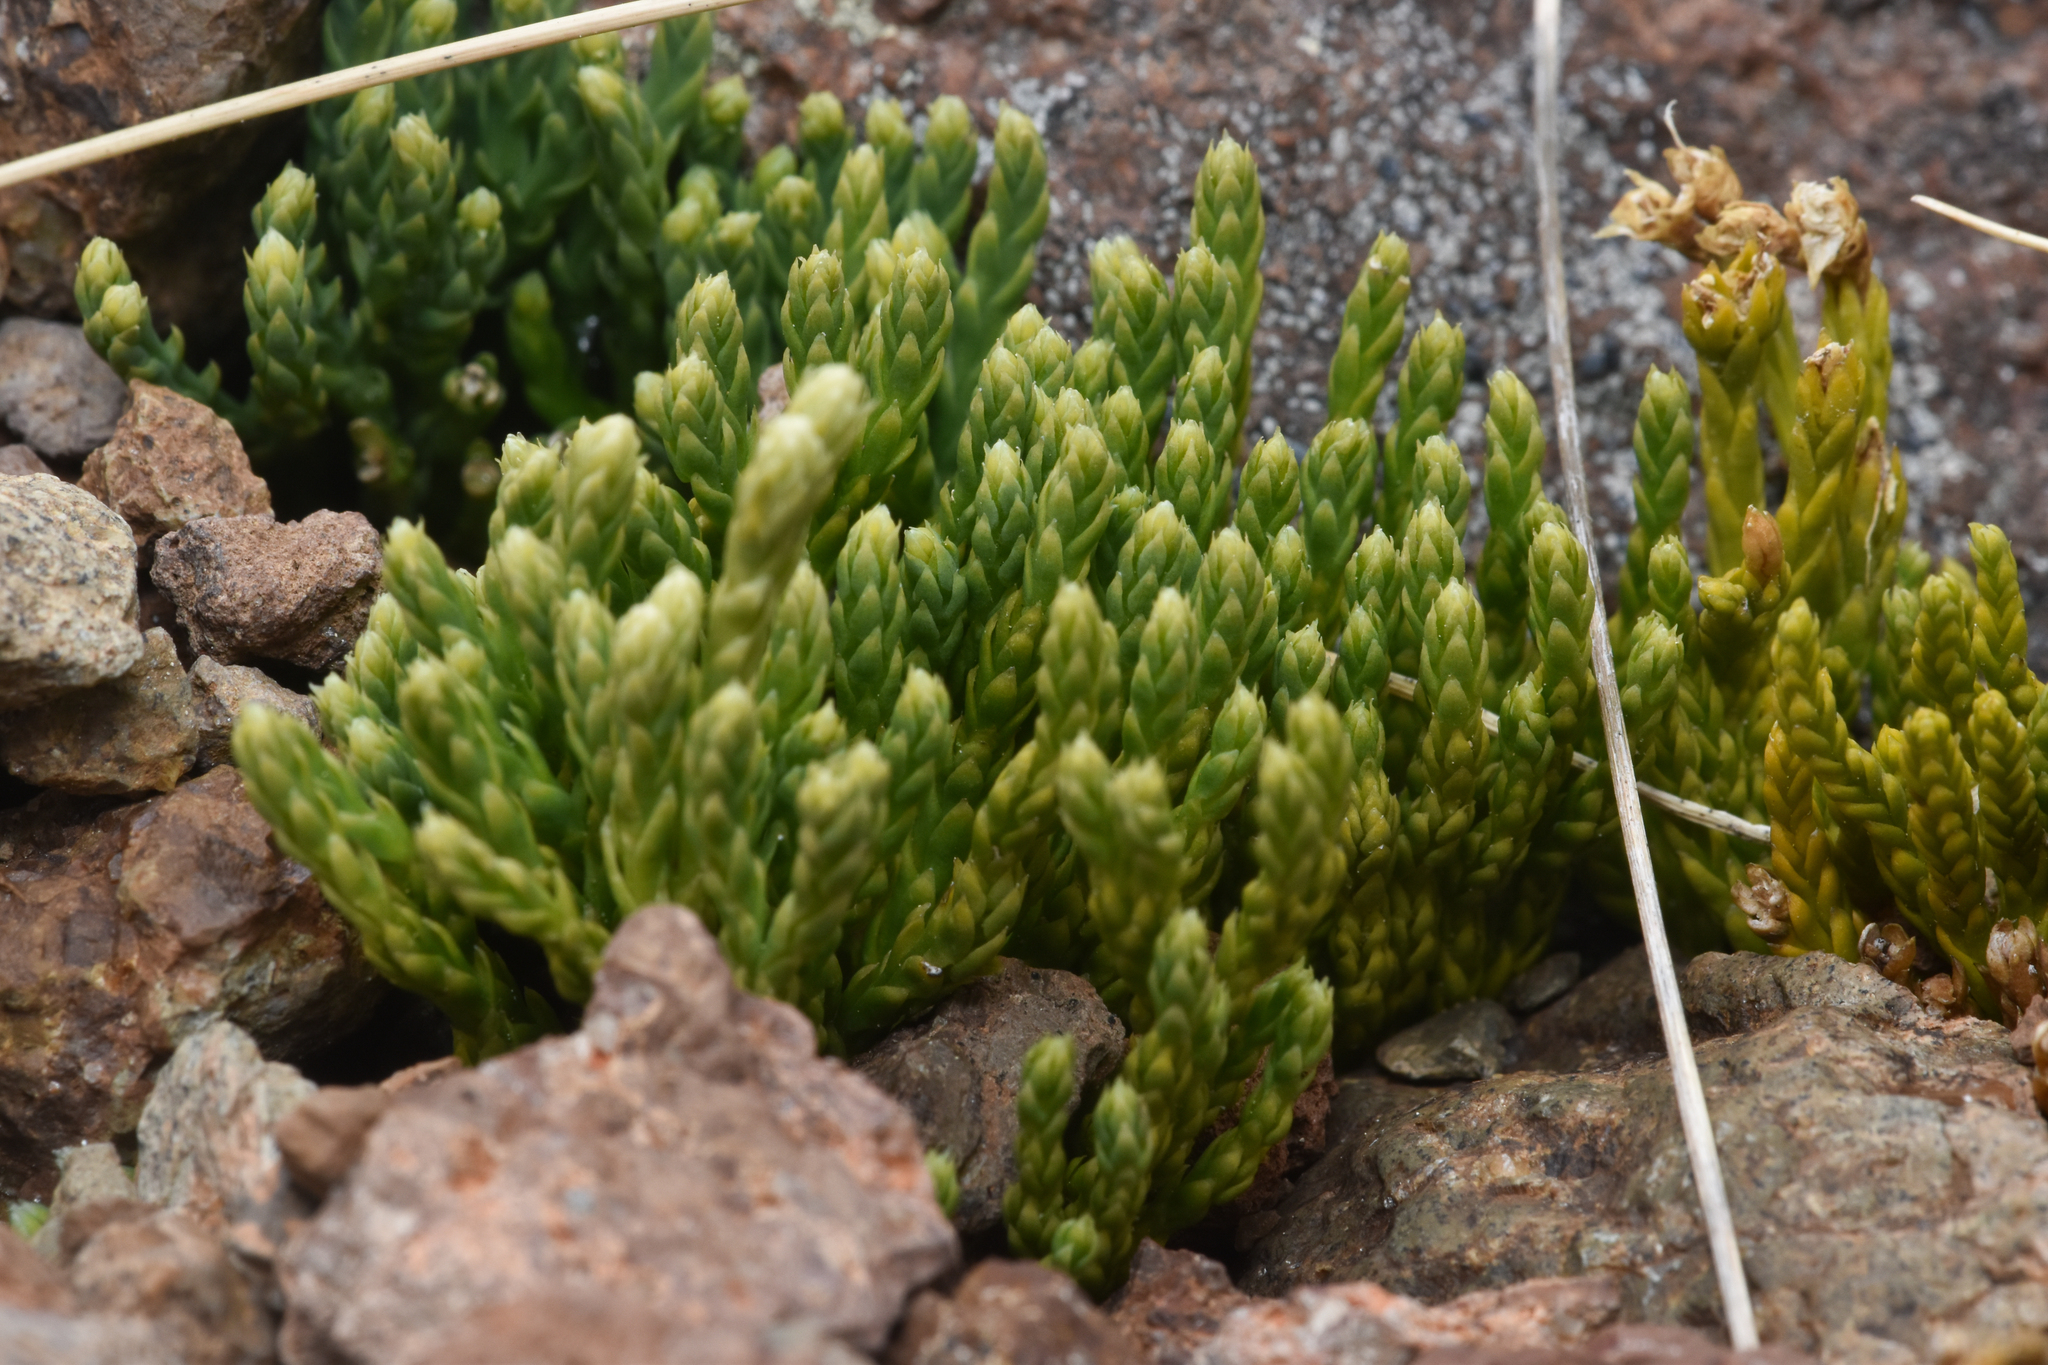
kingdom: Plantae
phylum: Tracheophyta
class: Lycopodiopsida
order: Lycopodiales
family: Lycopodiaceae
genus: Diphasiastrum
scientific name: Diphasiastrum alpinum
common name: Alpine clubmoss
